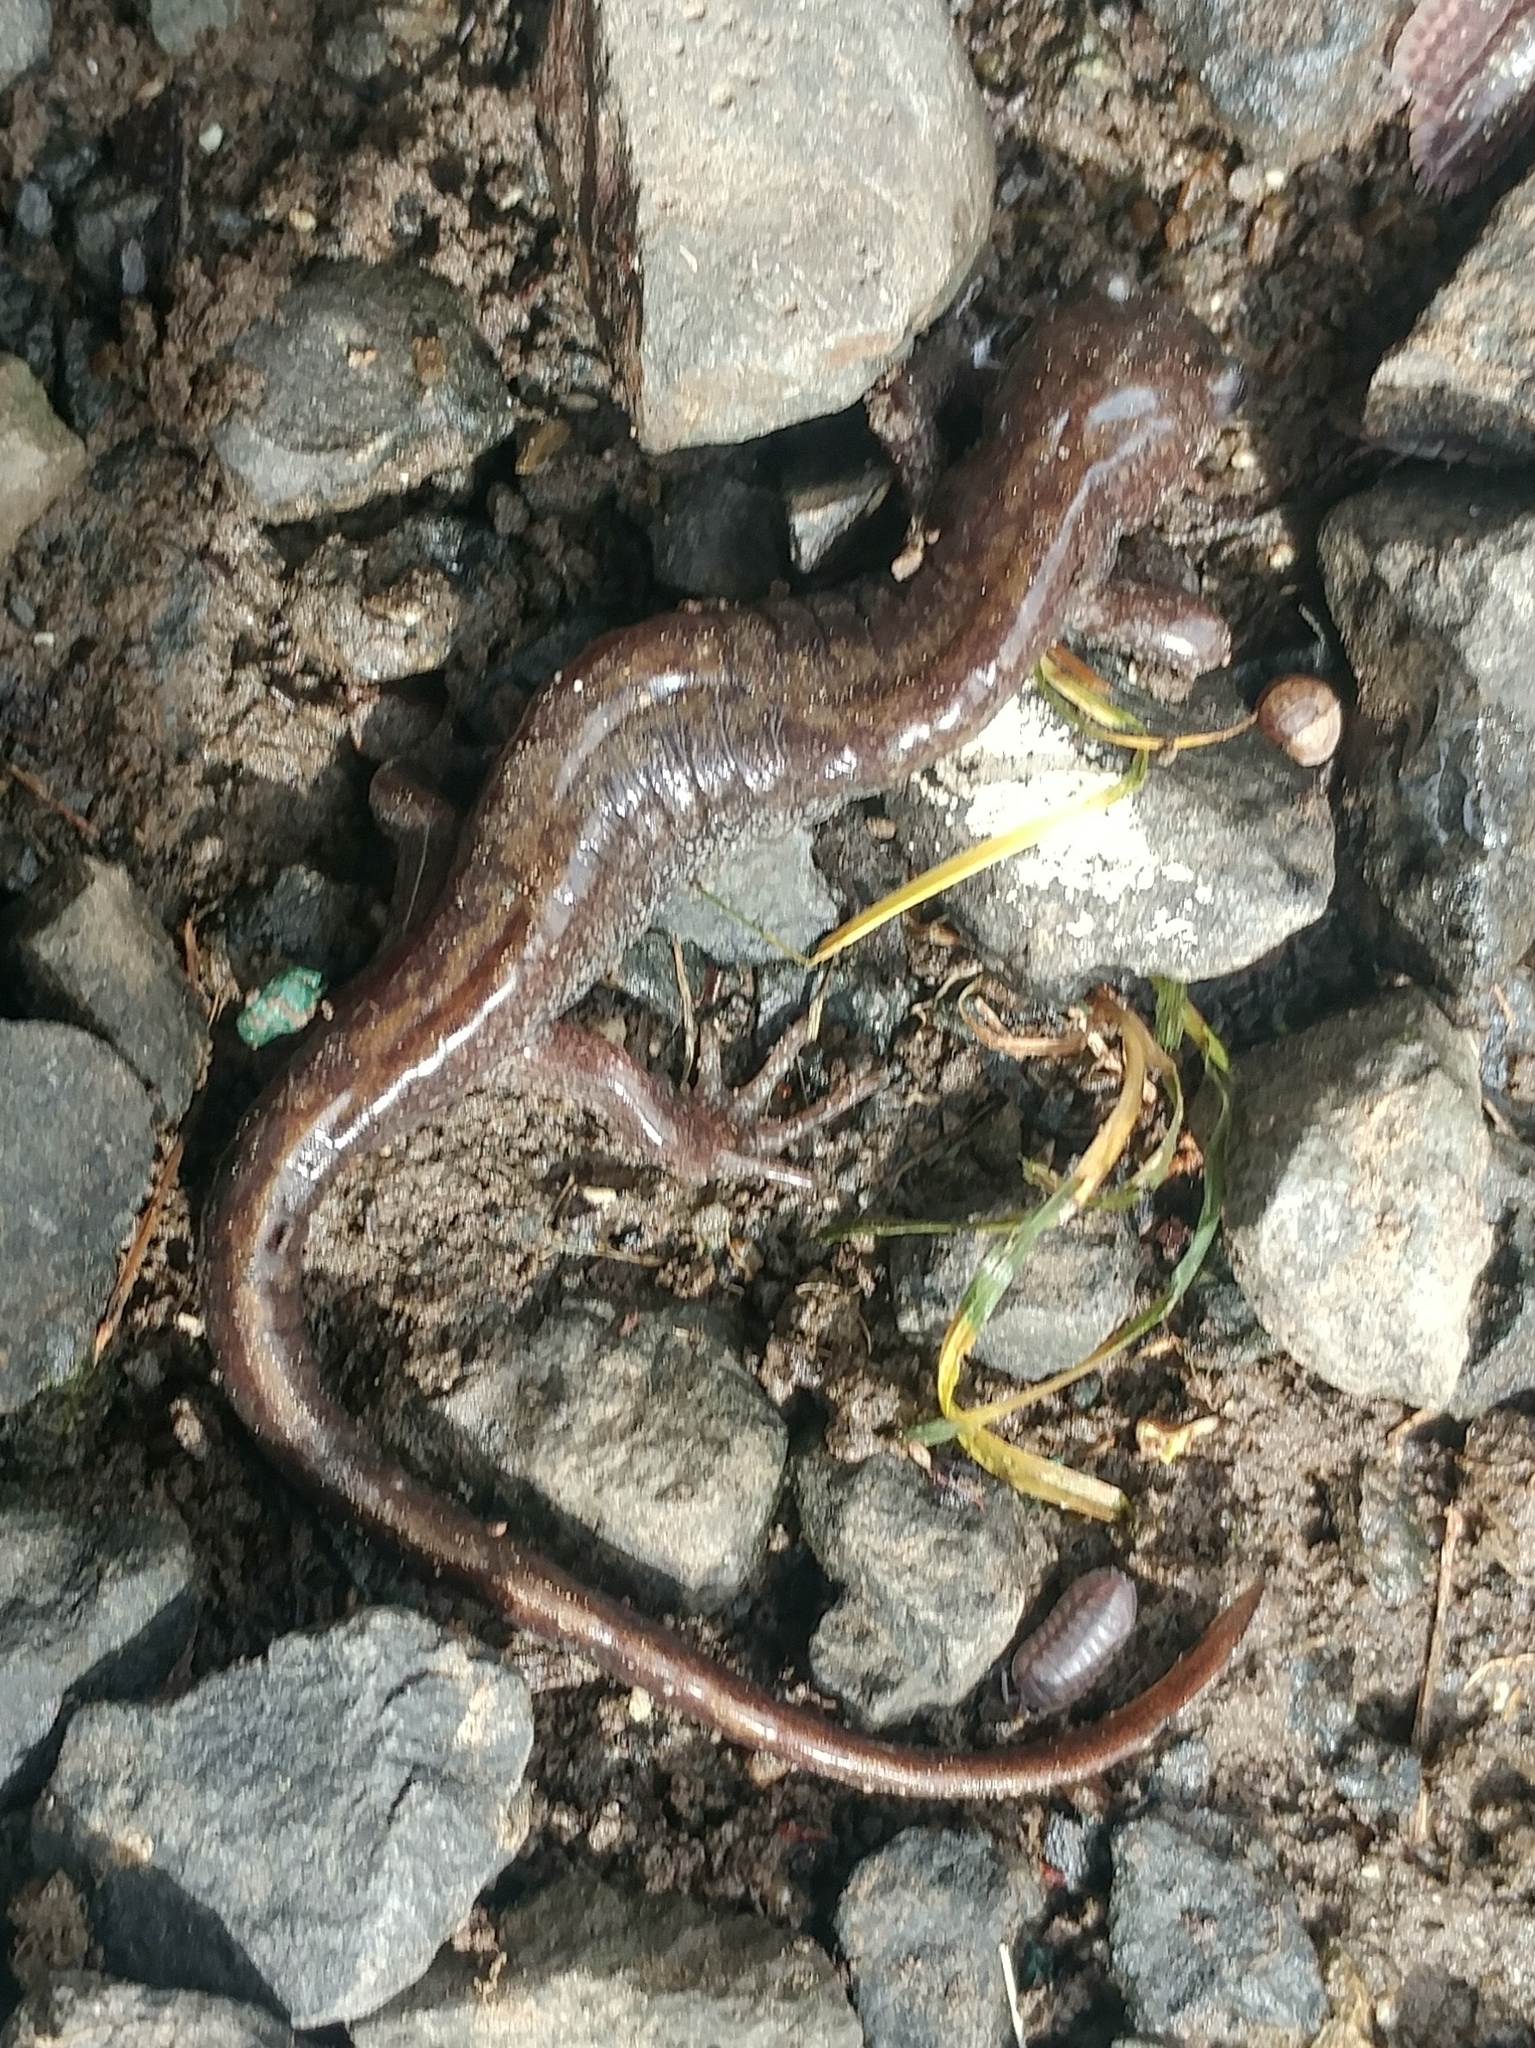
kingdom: Animalia
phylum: Chordata
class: Amphibia
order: Caudata
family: Ambystomatidae
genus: Ambystoma
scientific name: Ambystoma macrodactylum
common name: Long-toed salamander
